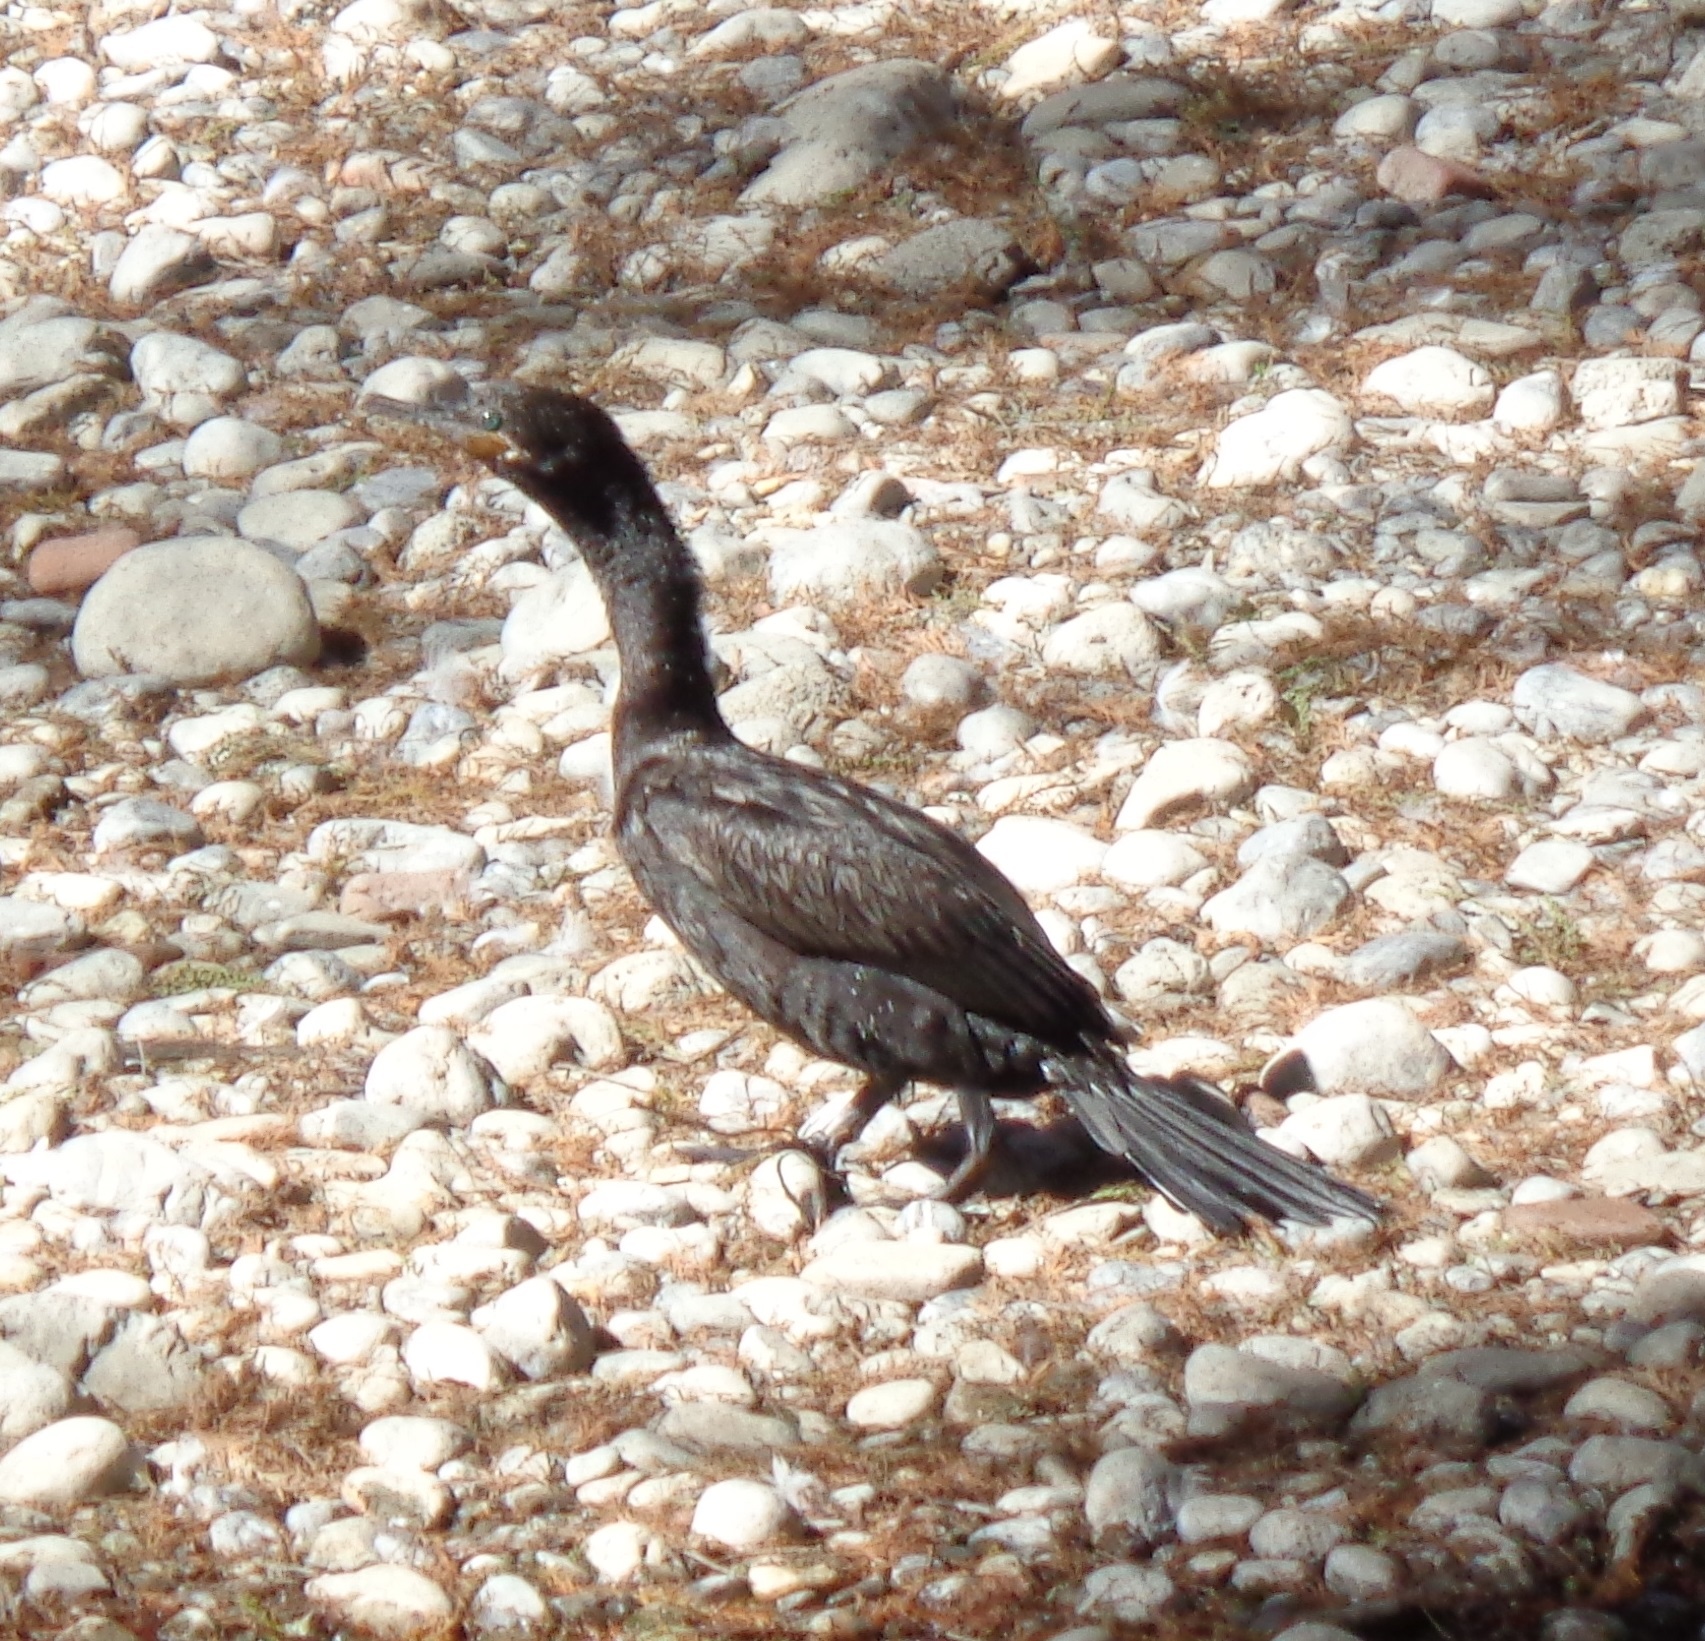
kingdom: Animalia
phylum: Chordata
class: Aves
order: Suliformes
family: Phalacrocoracidae
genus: Phalacrocorax
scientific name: Phalacrocorax brasilianus
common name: Neotropic cormorant
